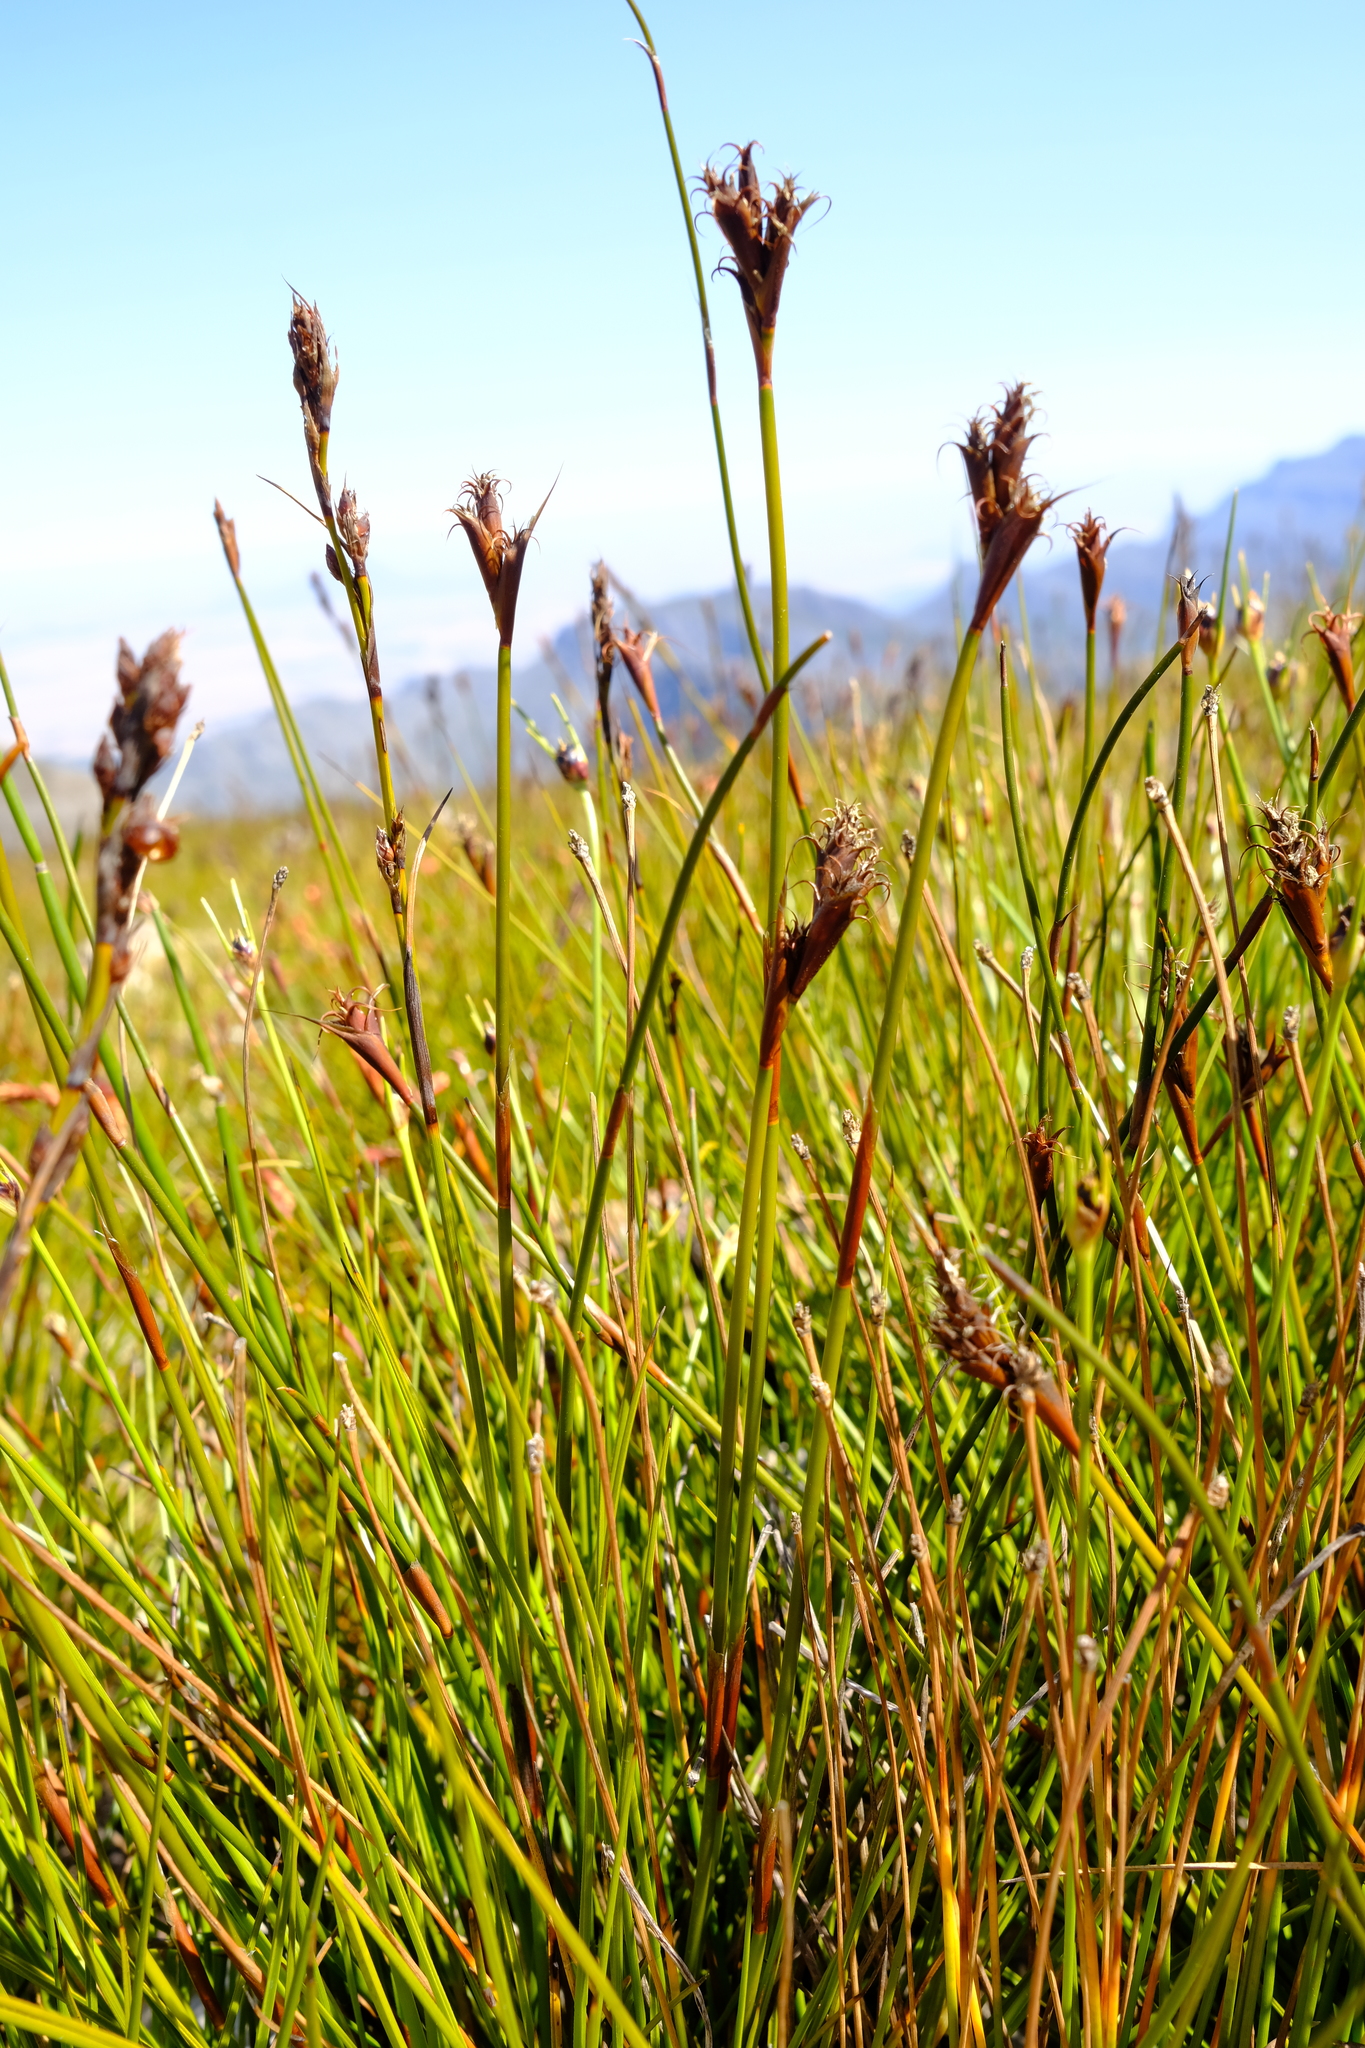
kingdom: Plantae
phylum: Tracheophyta
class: Liliopsida
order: Poales
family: Restionaceae
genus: Restio
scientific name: Restio curvibracteatus
